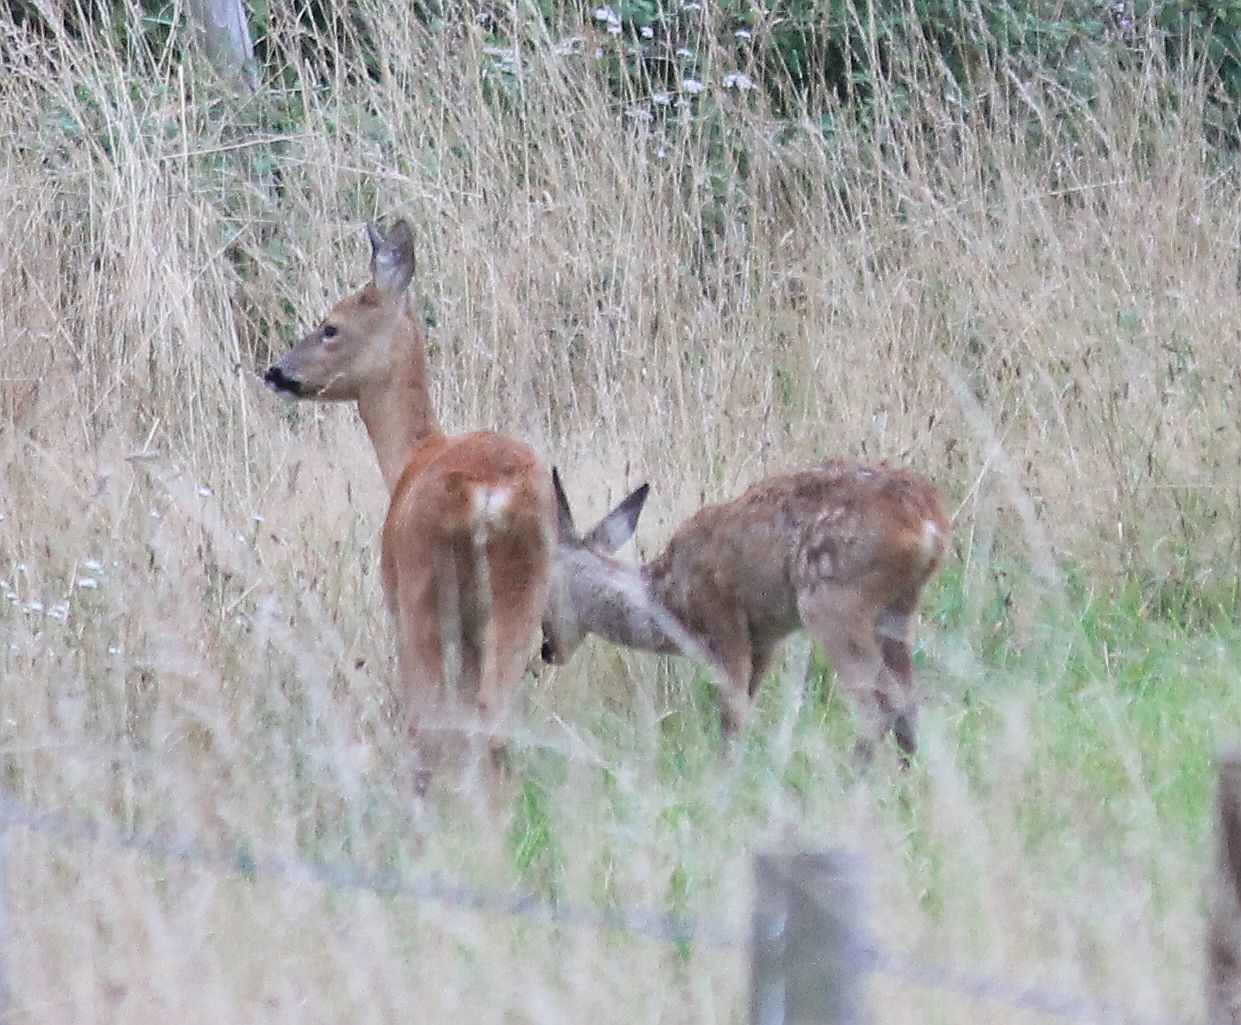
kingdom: Animalia
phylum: Chordata
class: Mammalia
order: Artiodactyla
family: Cervidae
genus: Capreolus
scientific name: Capreolus capreolus
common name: Western roe deer
